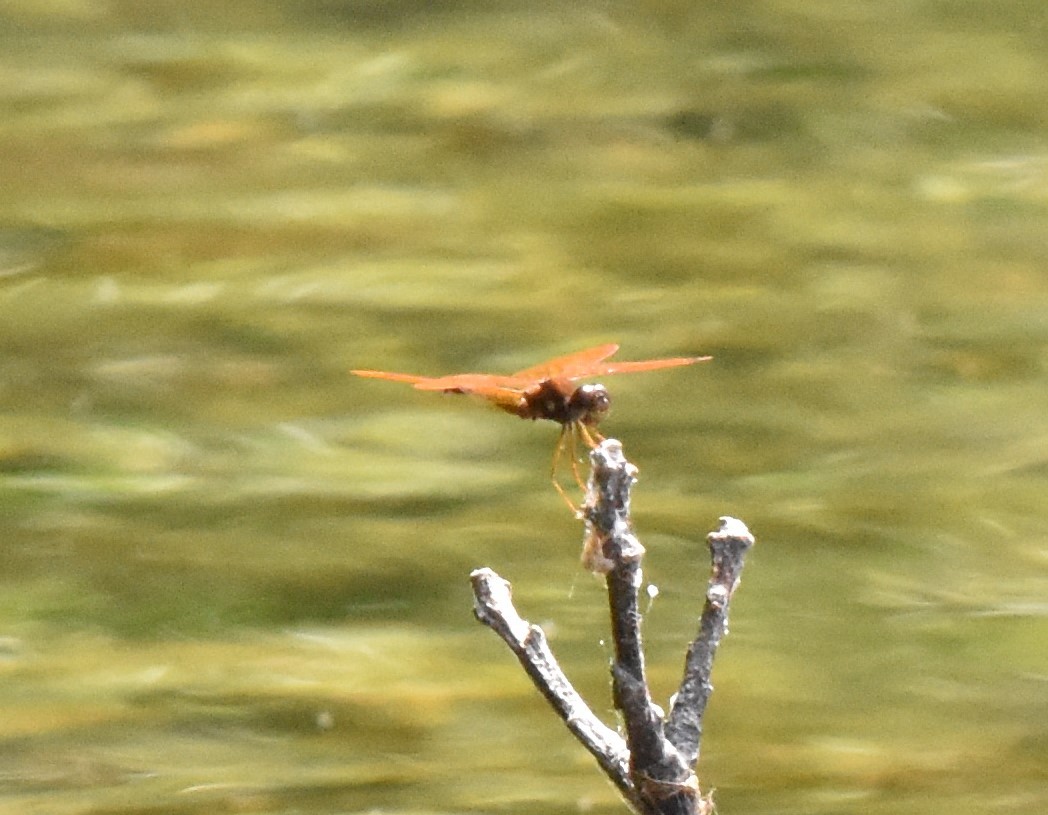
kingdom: Animalia
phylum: Arthropoda
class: Insecta
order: Odonata
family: Libellulidae
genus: Perithemis
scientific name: Perithemis tenera
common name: Eastern amberwing
